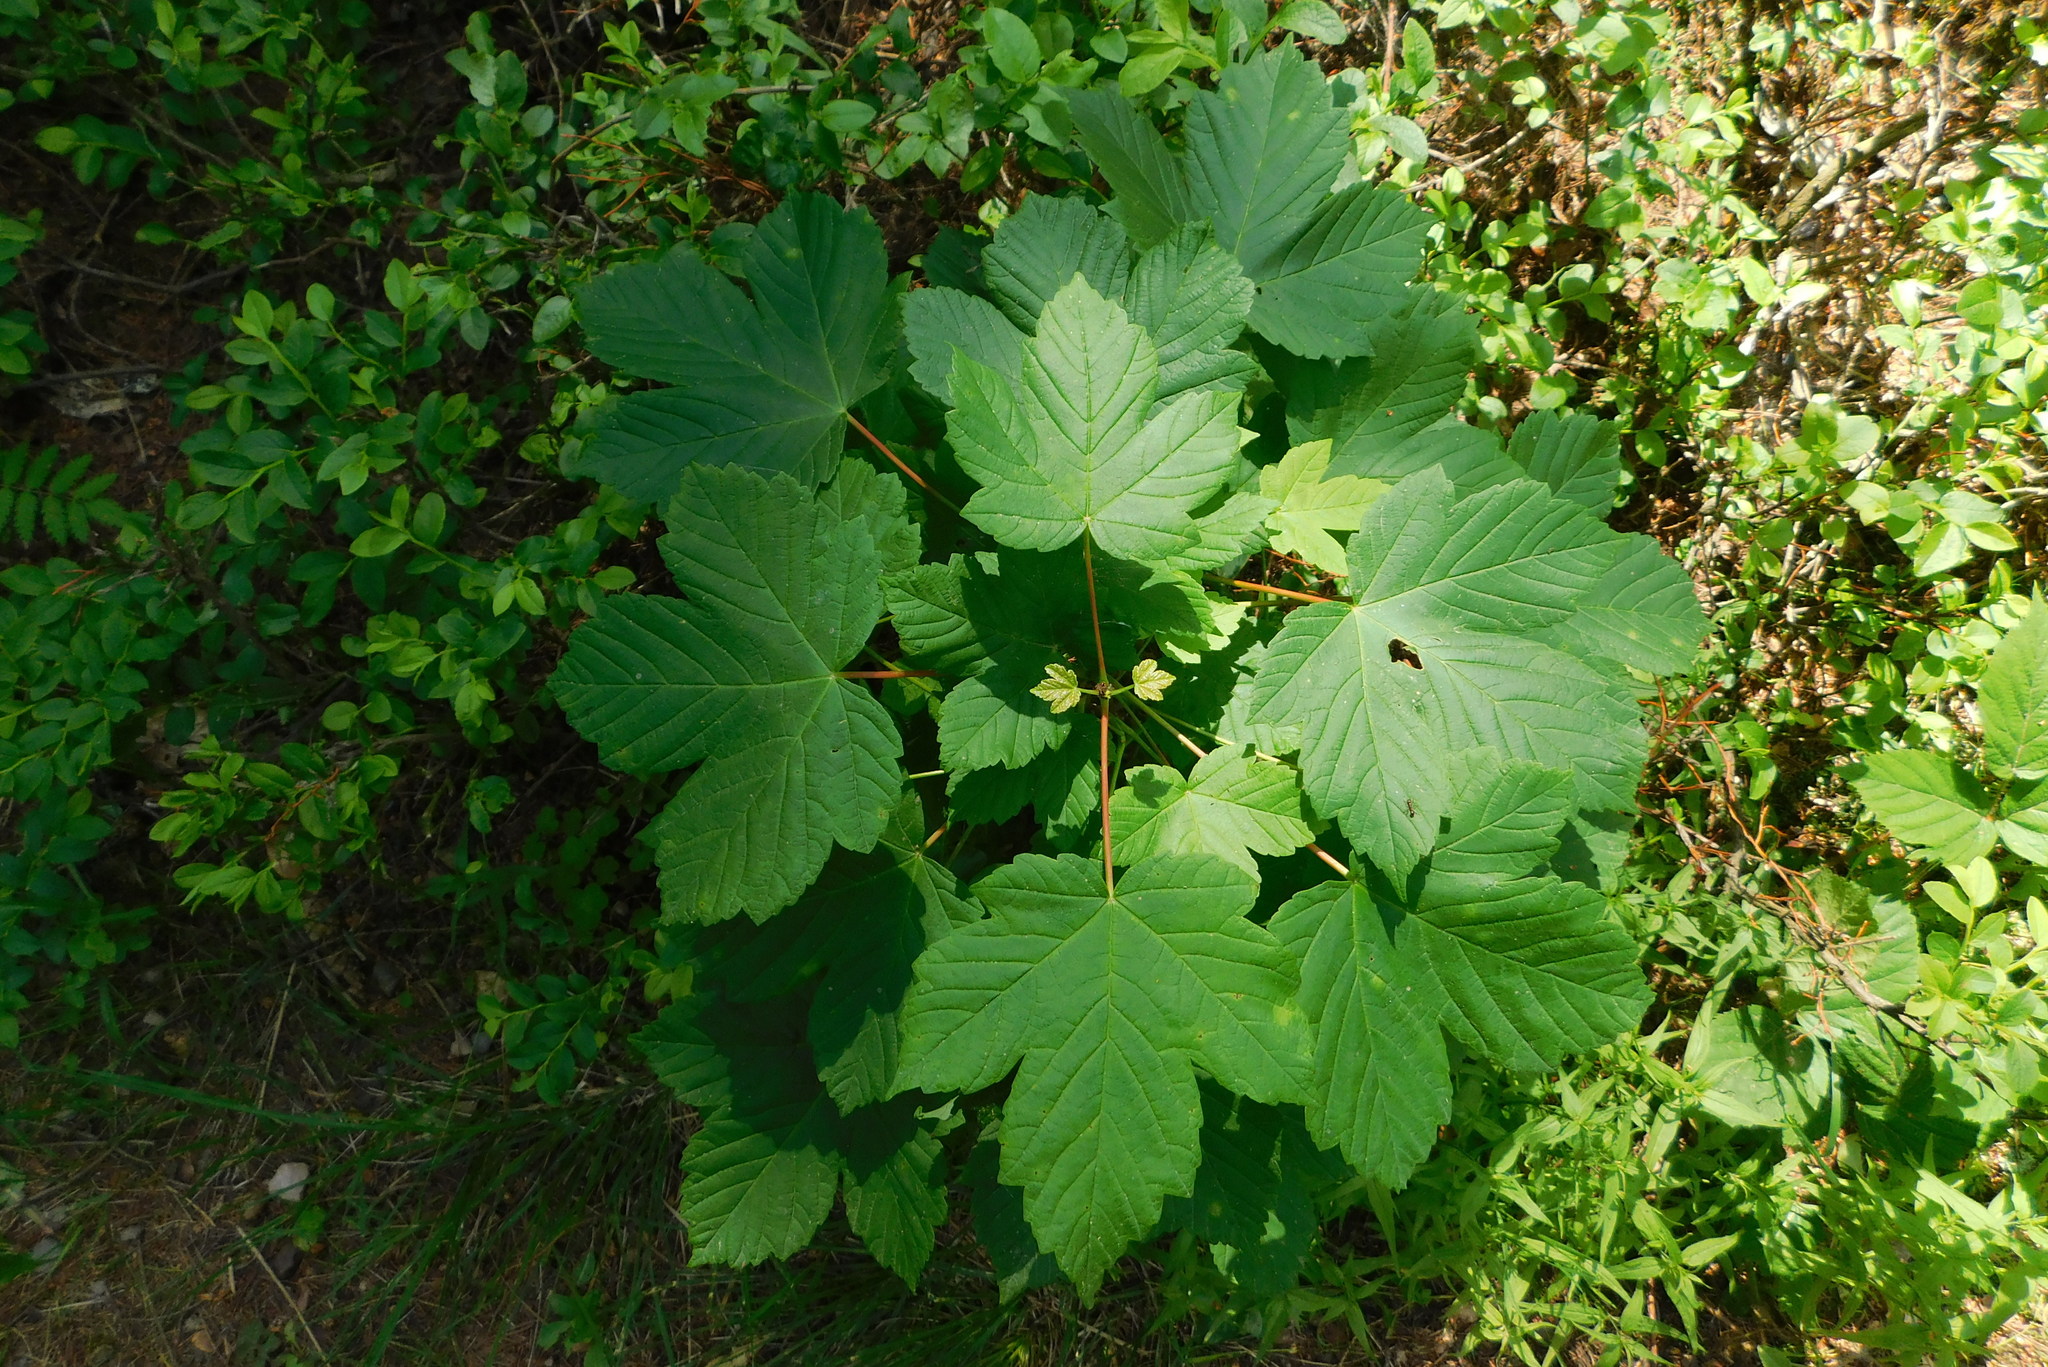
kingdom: Plantae
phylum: Tracheophyta
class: Magnoliopsida
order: Sapindales
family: Sapindaceae
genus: Acer
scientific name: Acer pseudoplatanus
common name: Sycamore
